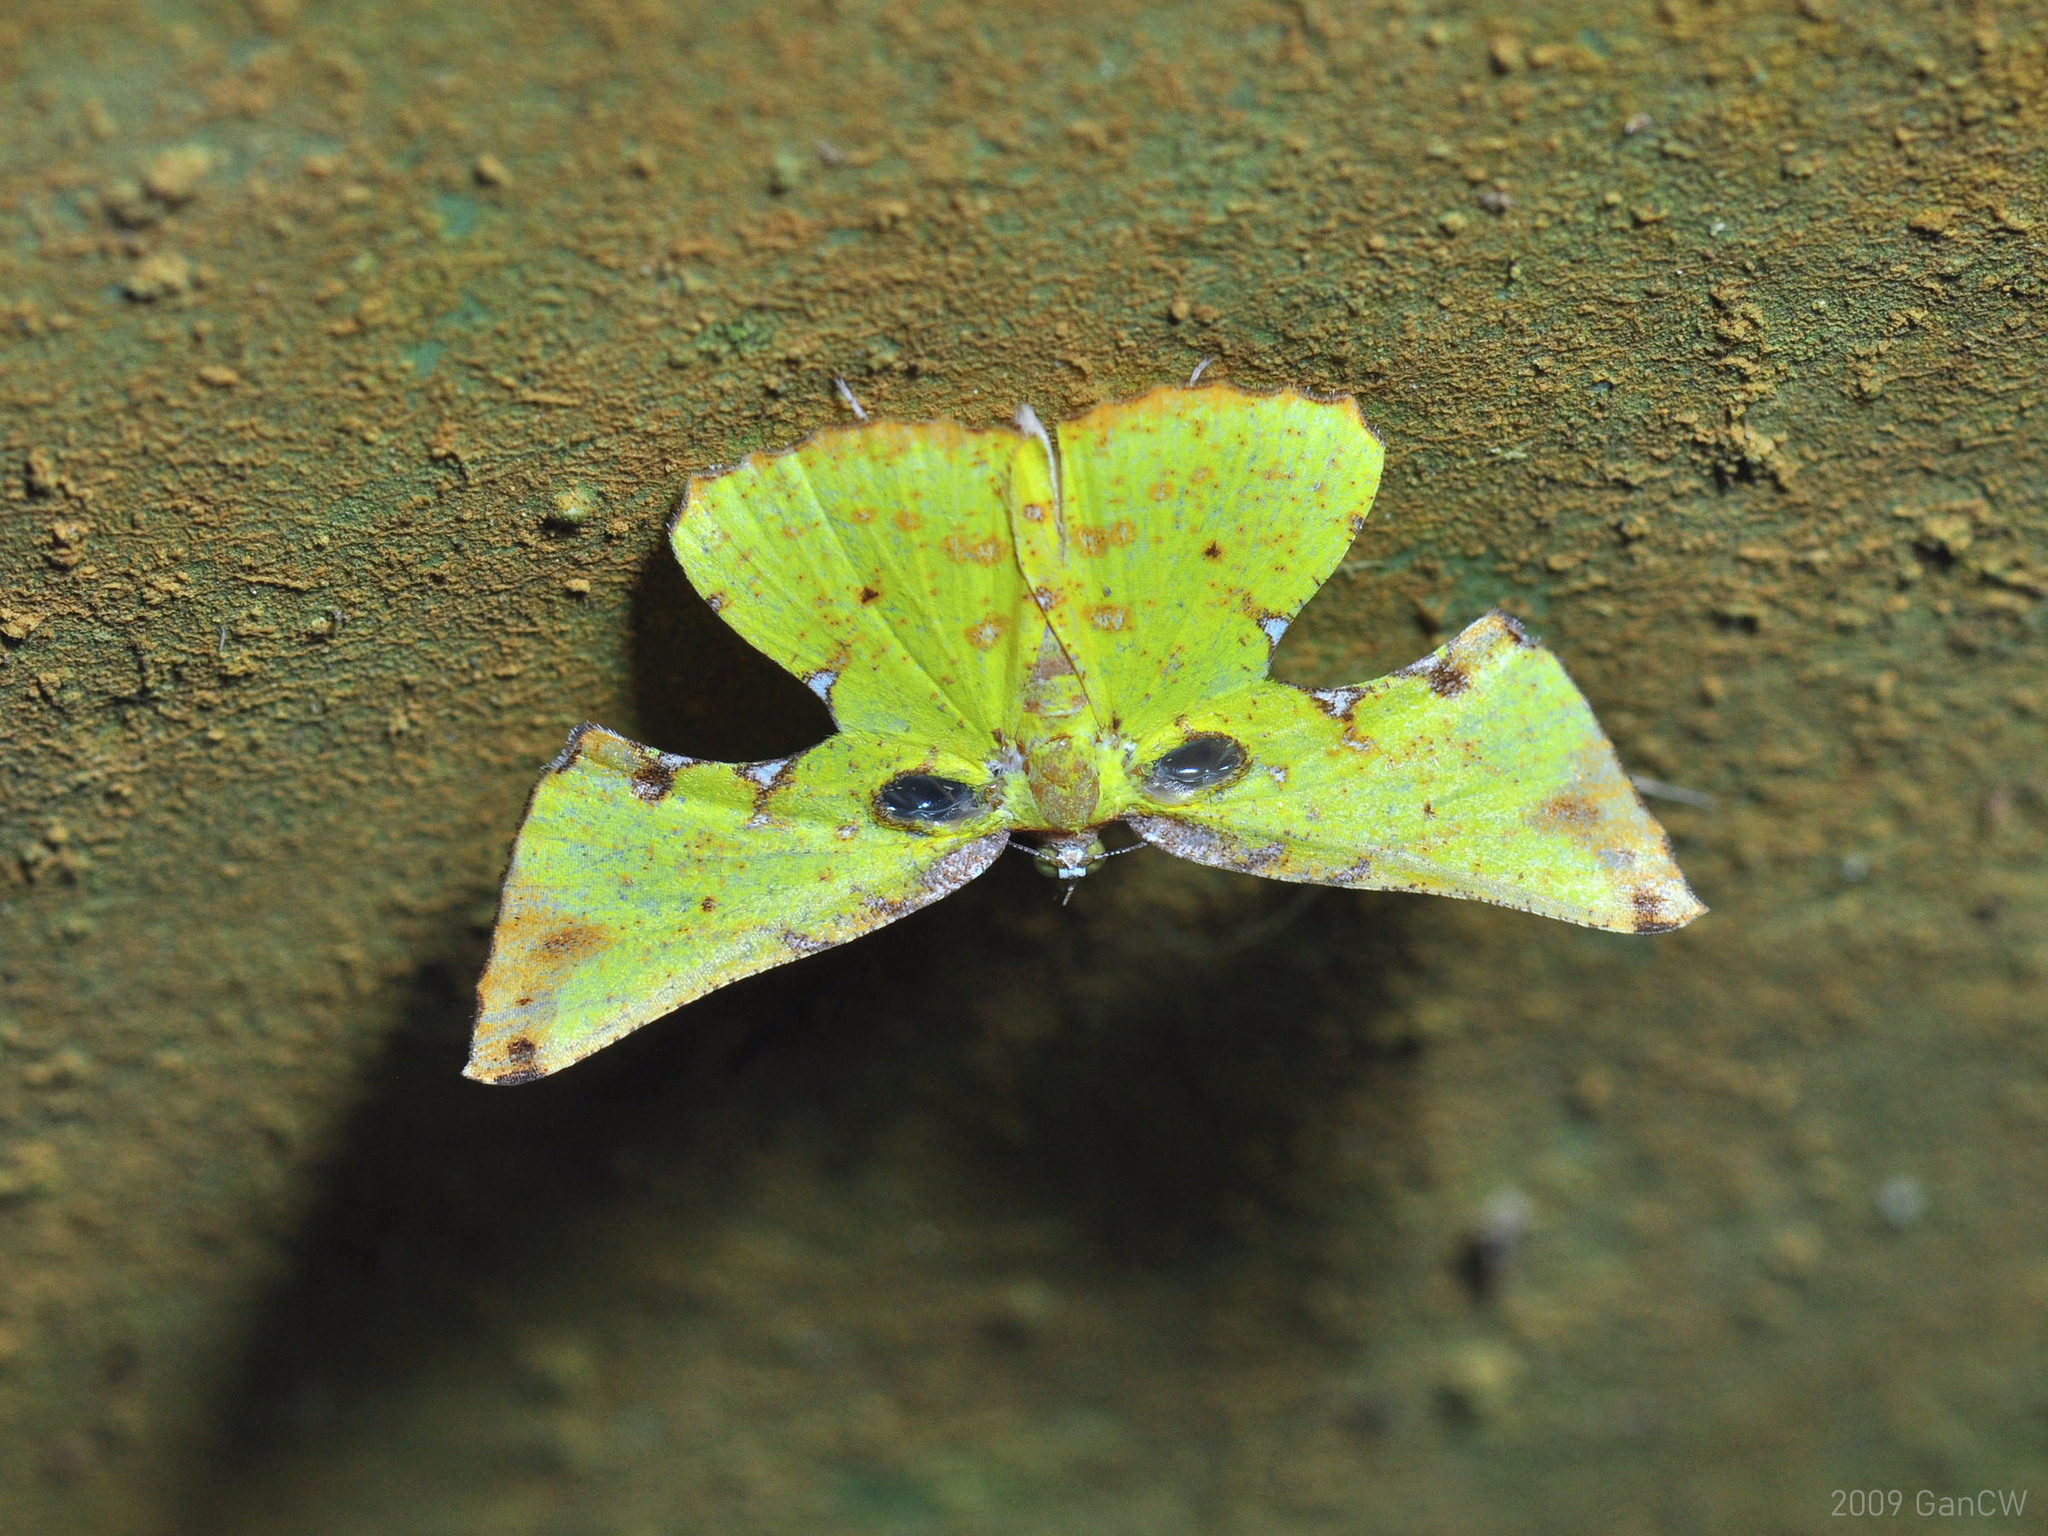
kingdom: Animalia
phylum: Arthropoda
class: Insecta
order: Lepidoptera
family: Geometridae
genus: Corymica
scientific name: Corymica arnearia
